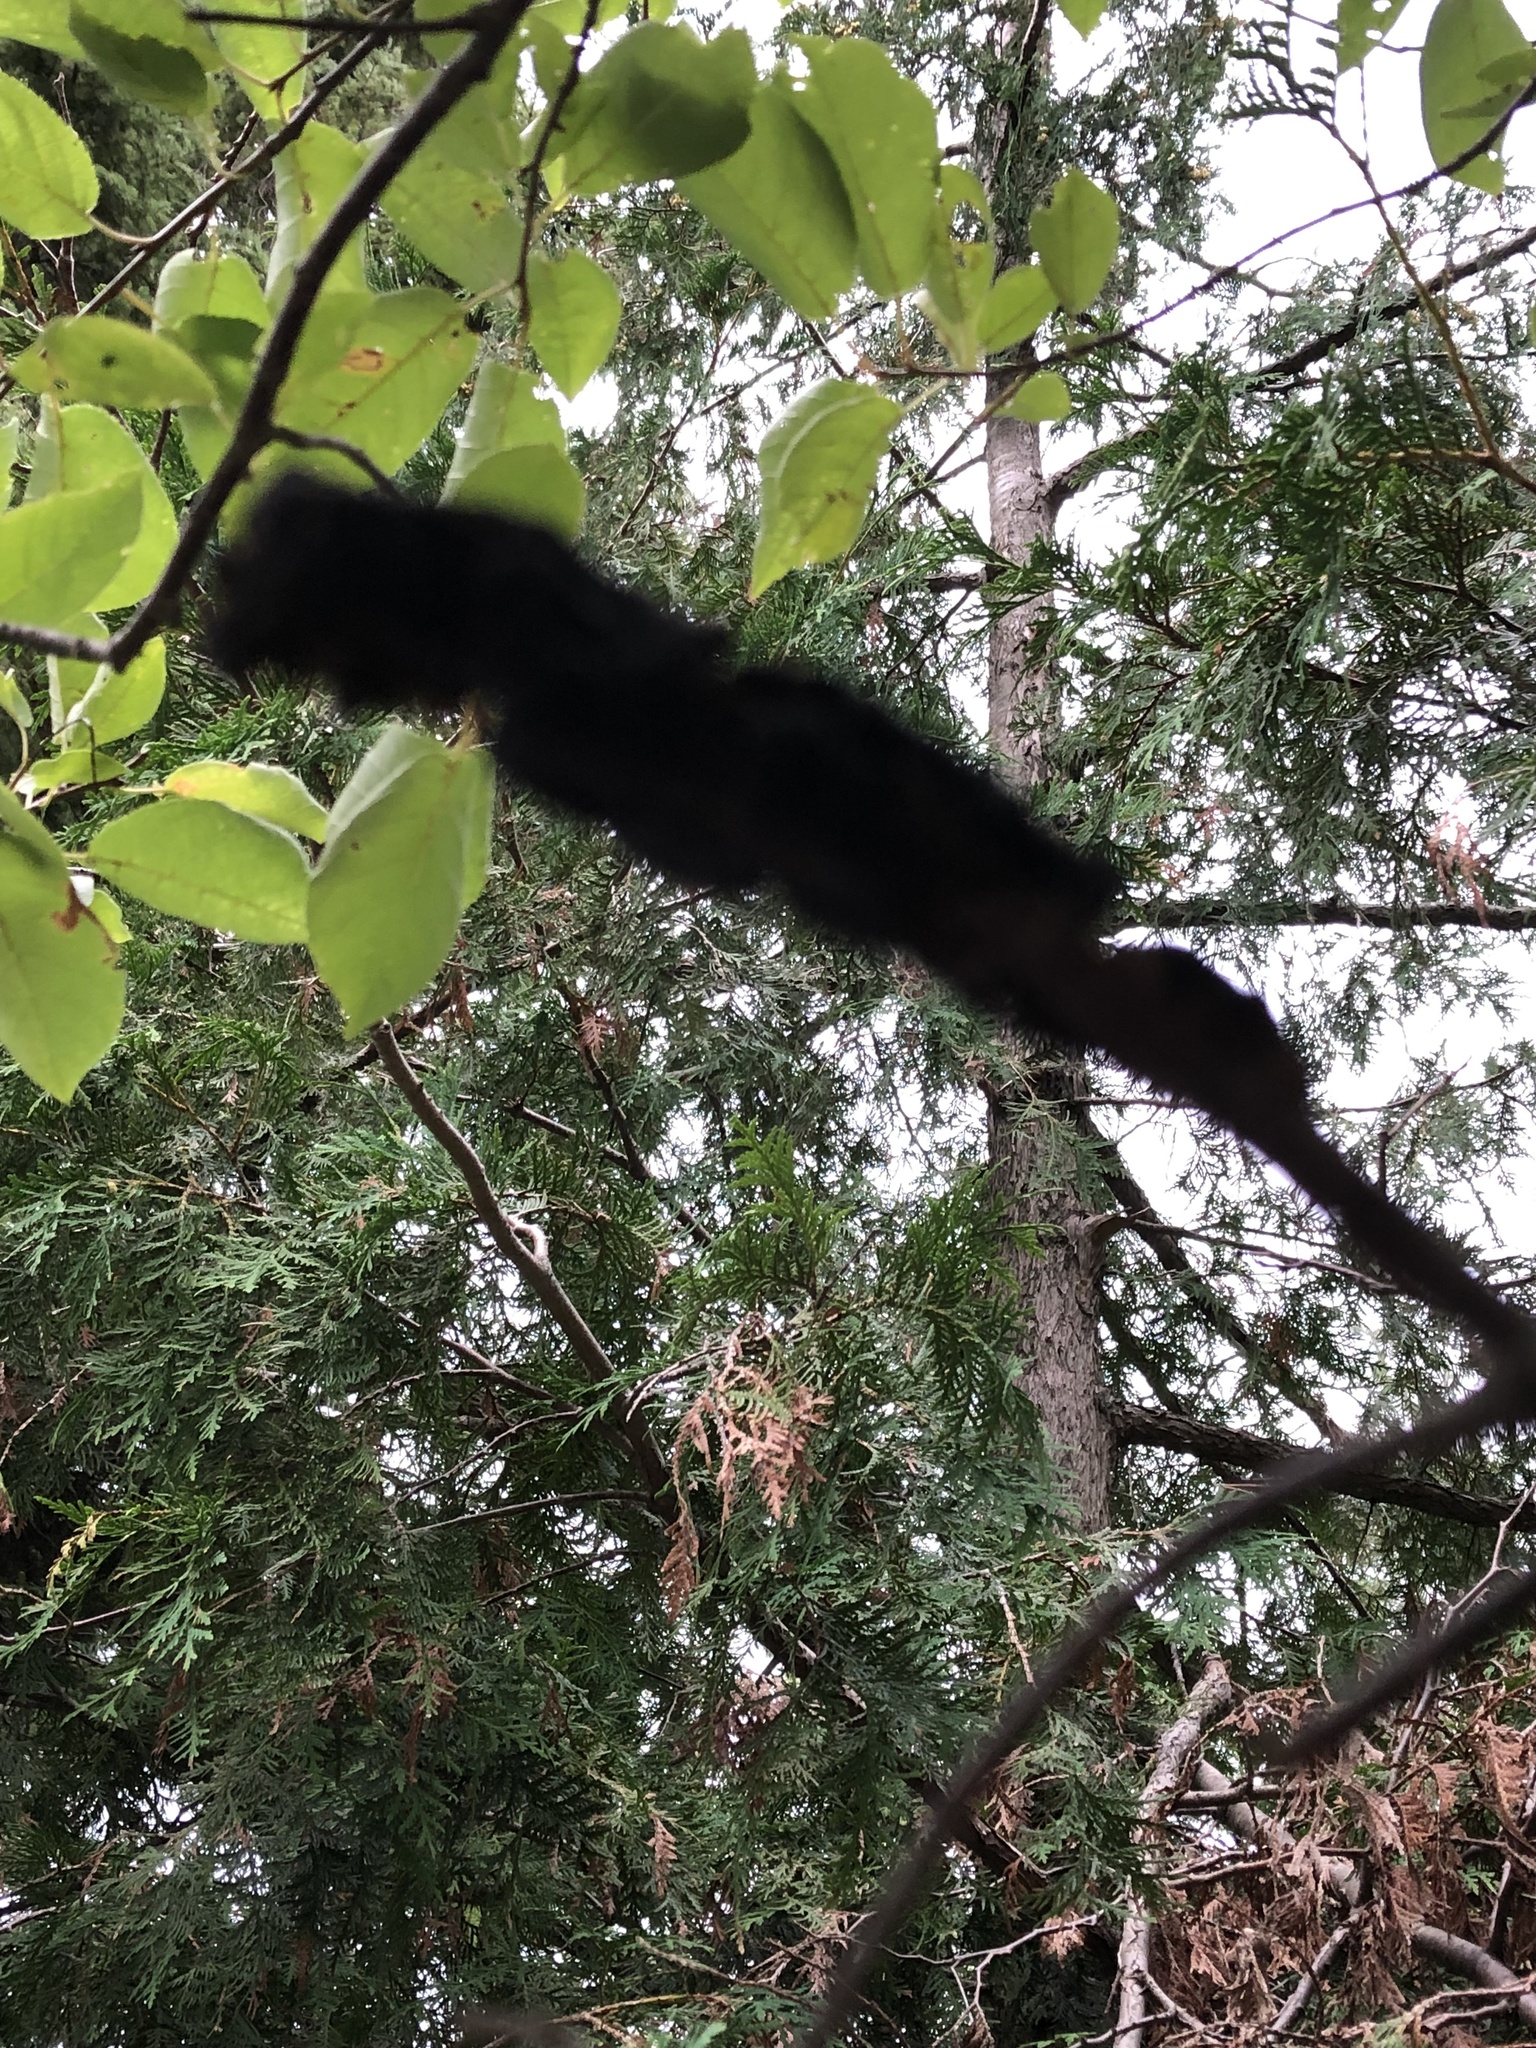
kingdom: Fungi
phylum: Ascomycota
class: Dothideomycetes
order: Venturiales
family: Venturiaceae
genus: Apiosporina
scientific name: Apiosporina morbosa
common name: Black knot
